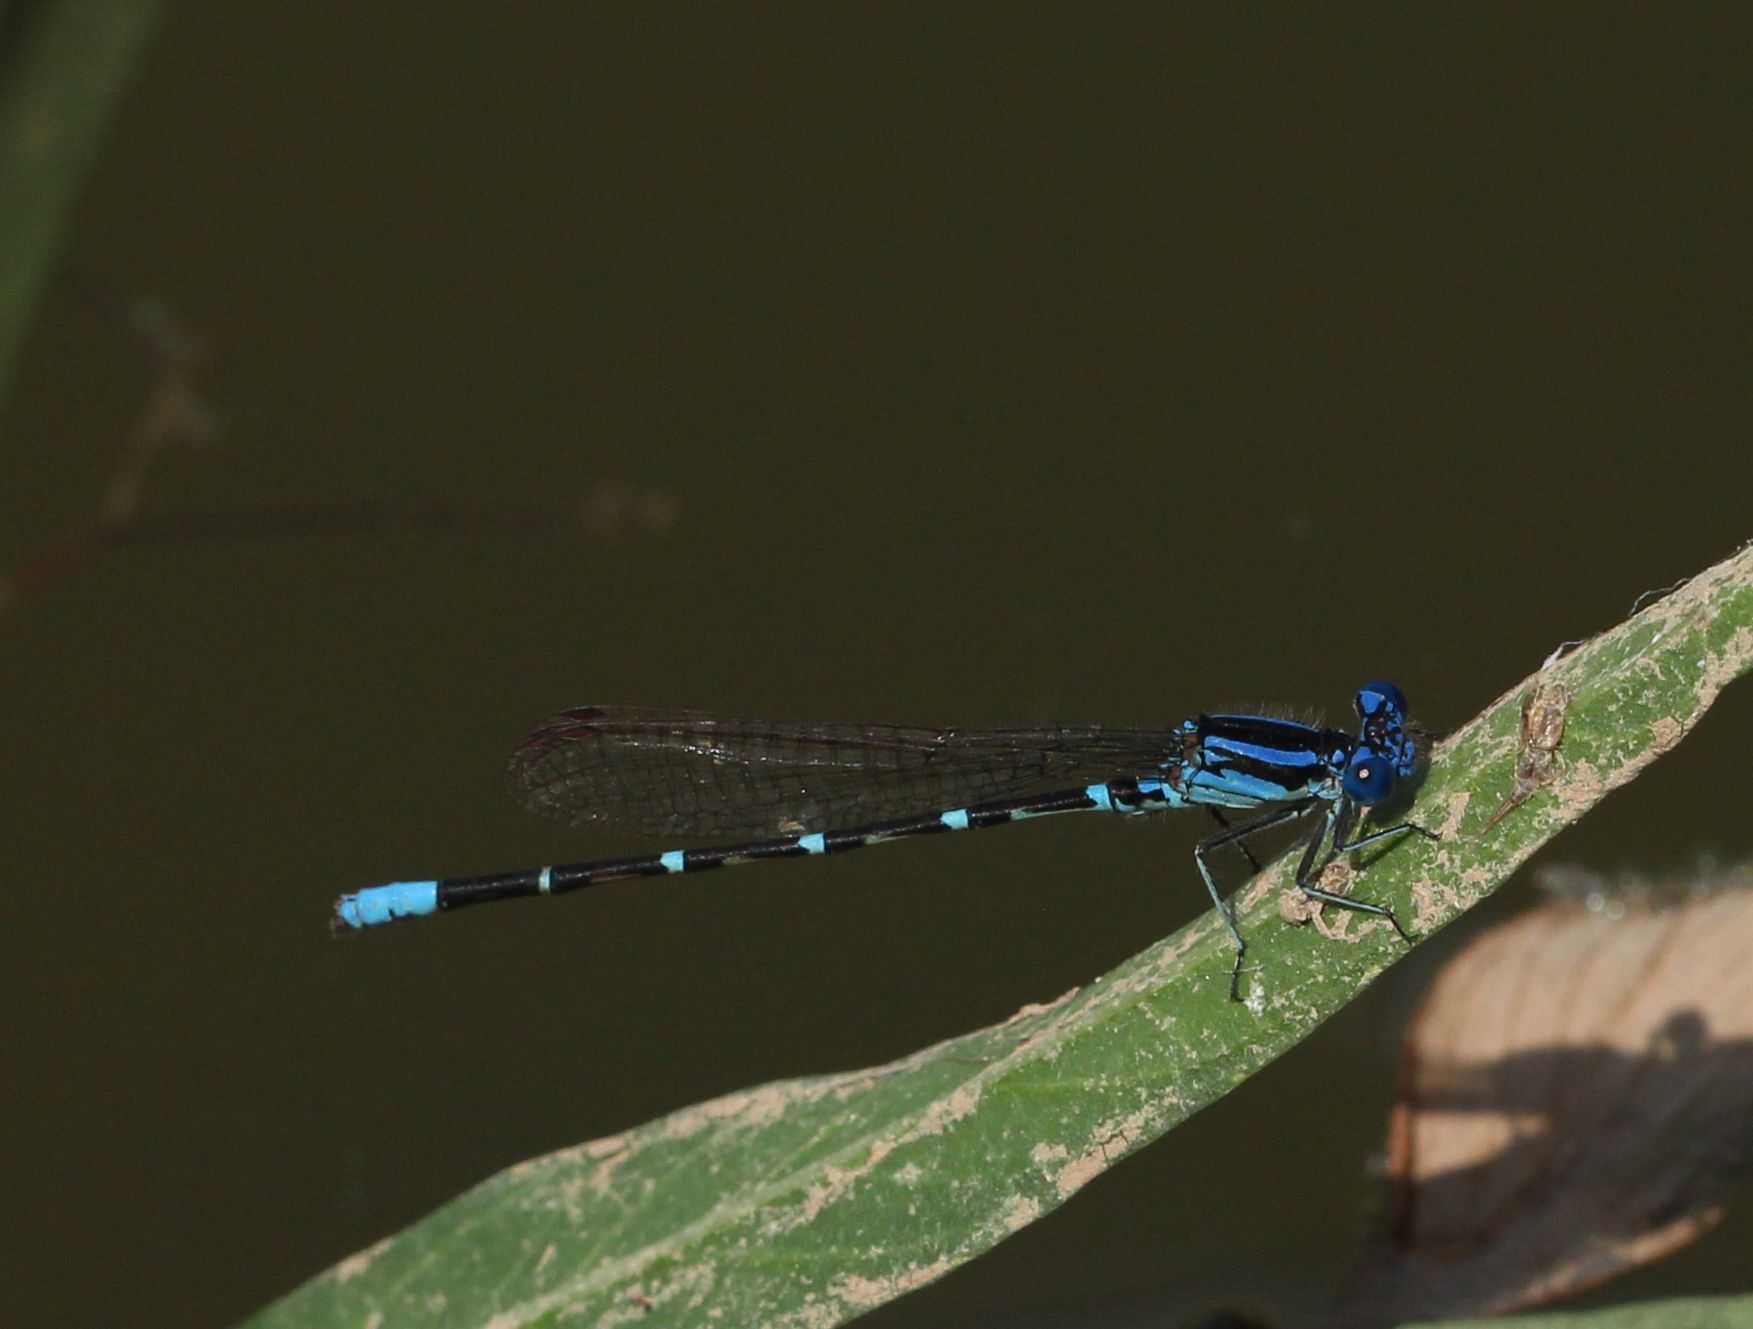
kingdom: Animalia
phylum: Arthropoda
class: Insecta
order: Odonata
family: Coenagrionidae
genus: Argia
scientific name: Argia sedula
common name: Blue-ringed dancer
